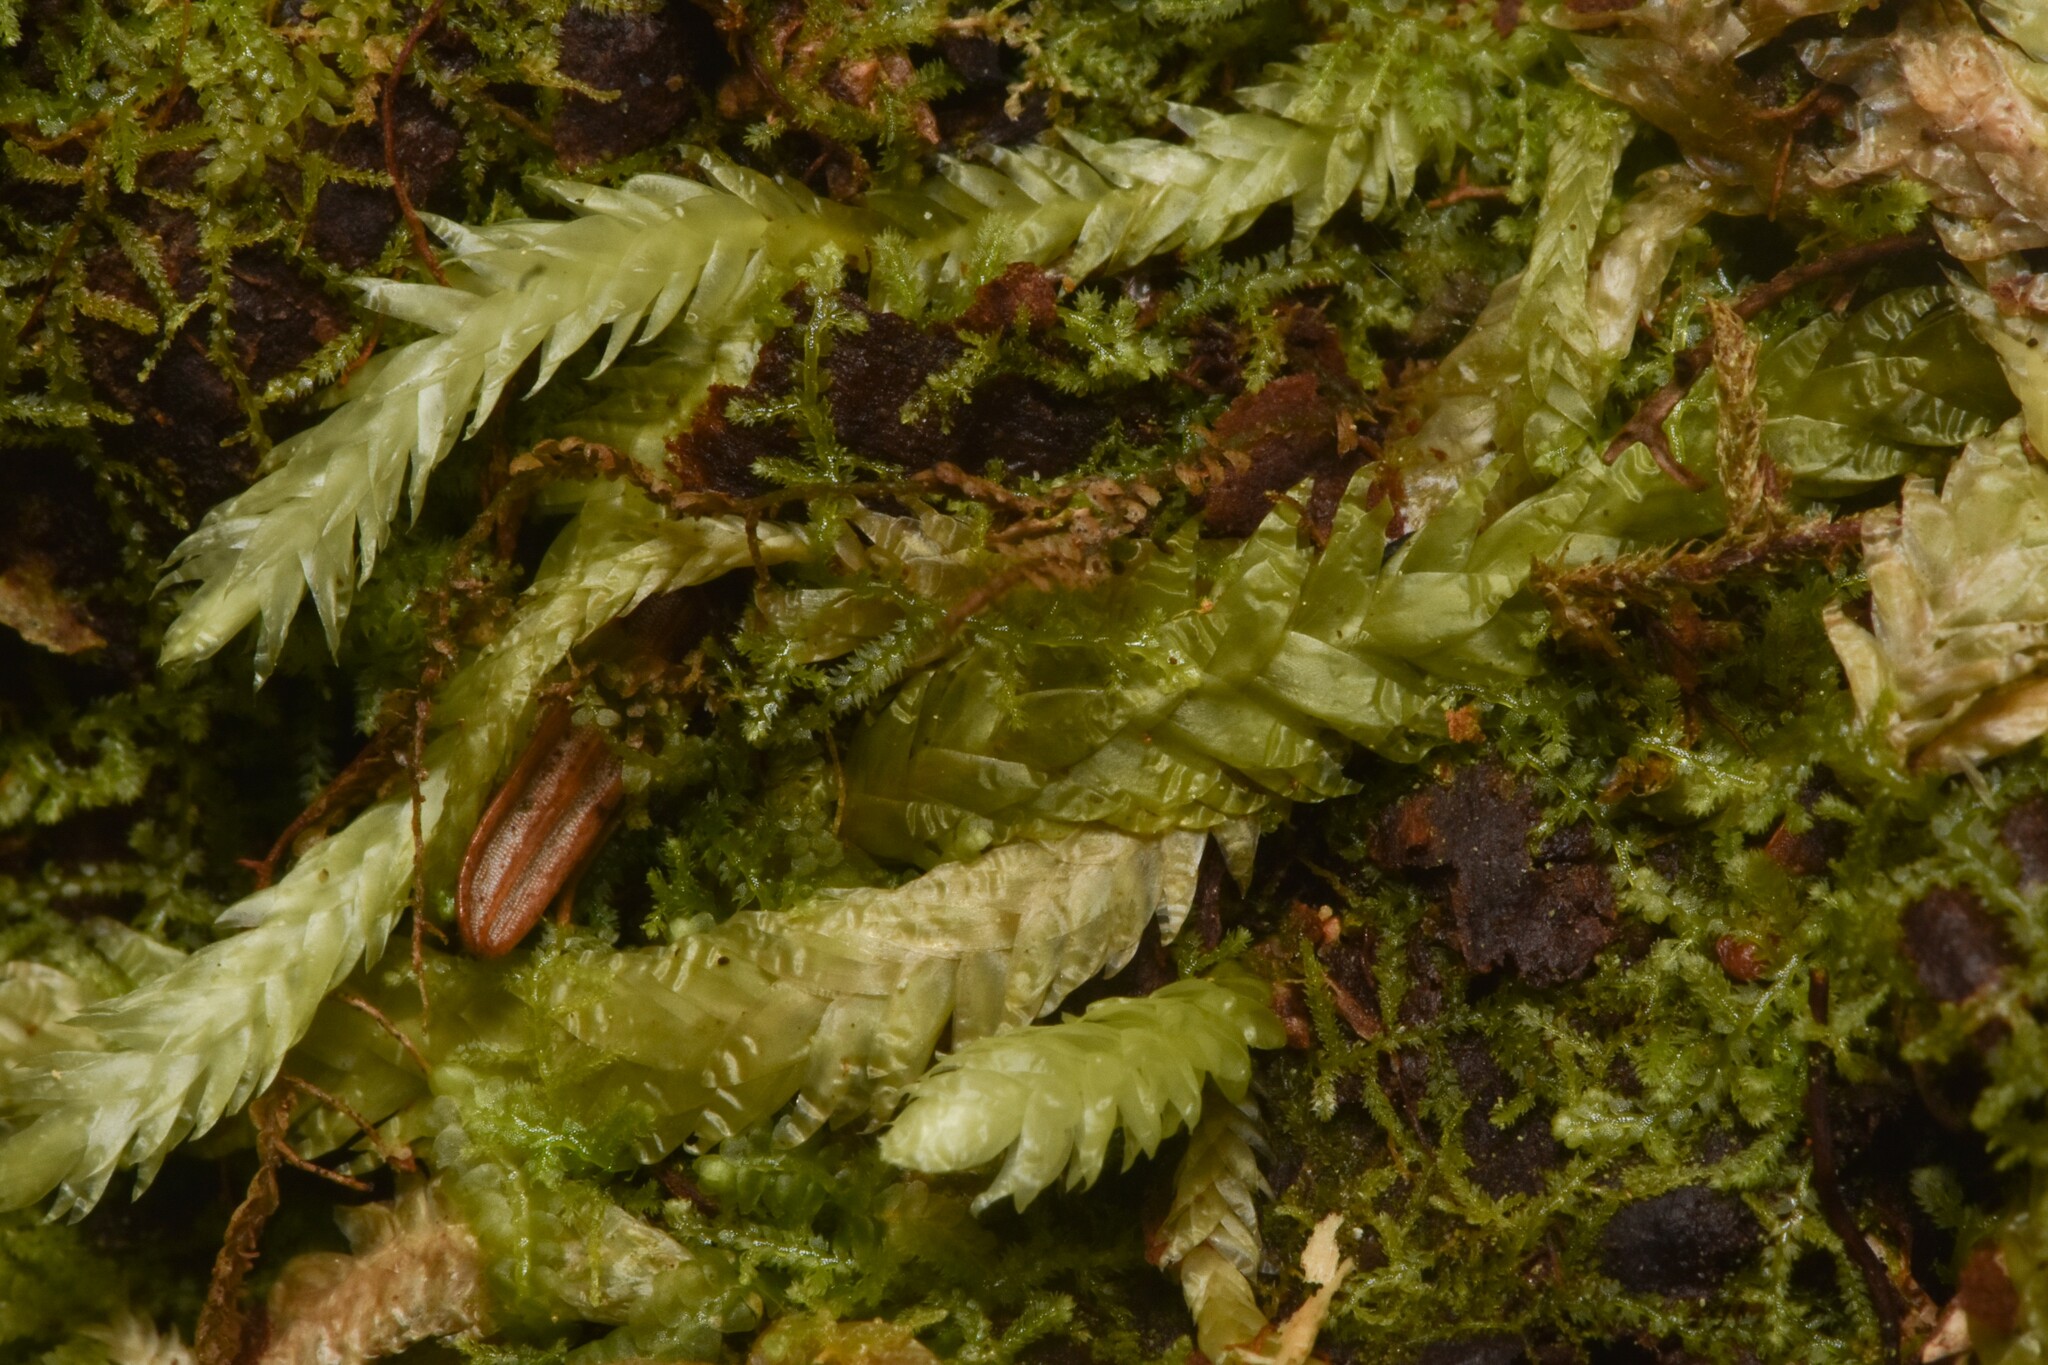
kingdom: Plantae
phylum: Bryophyta
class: Bryopsida
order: Hypnales
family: Plagiotheciaceae
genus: Plagiothecium
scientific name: Plagiothecium undulatum
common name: Waved silk-moss
